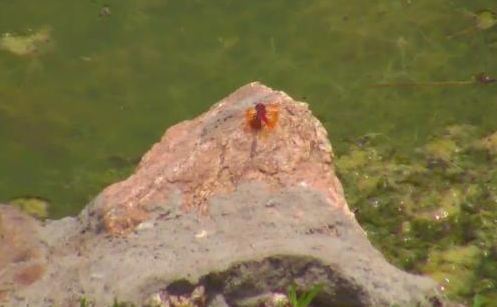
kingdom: Animalia
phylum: Arthropoda
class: Insecta
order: Odonata
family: Libellulidae
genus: Trithemis
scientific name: Trithemis kirbyi
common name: Kirby's dropwing
